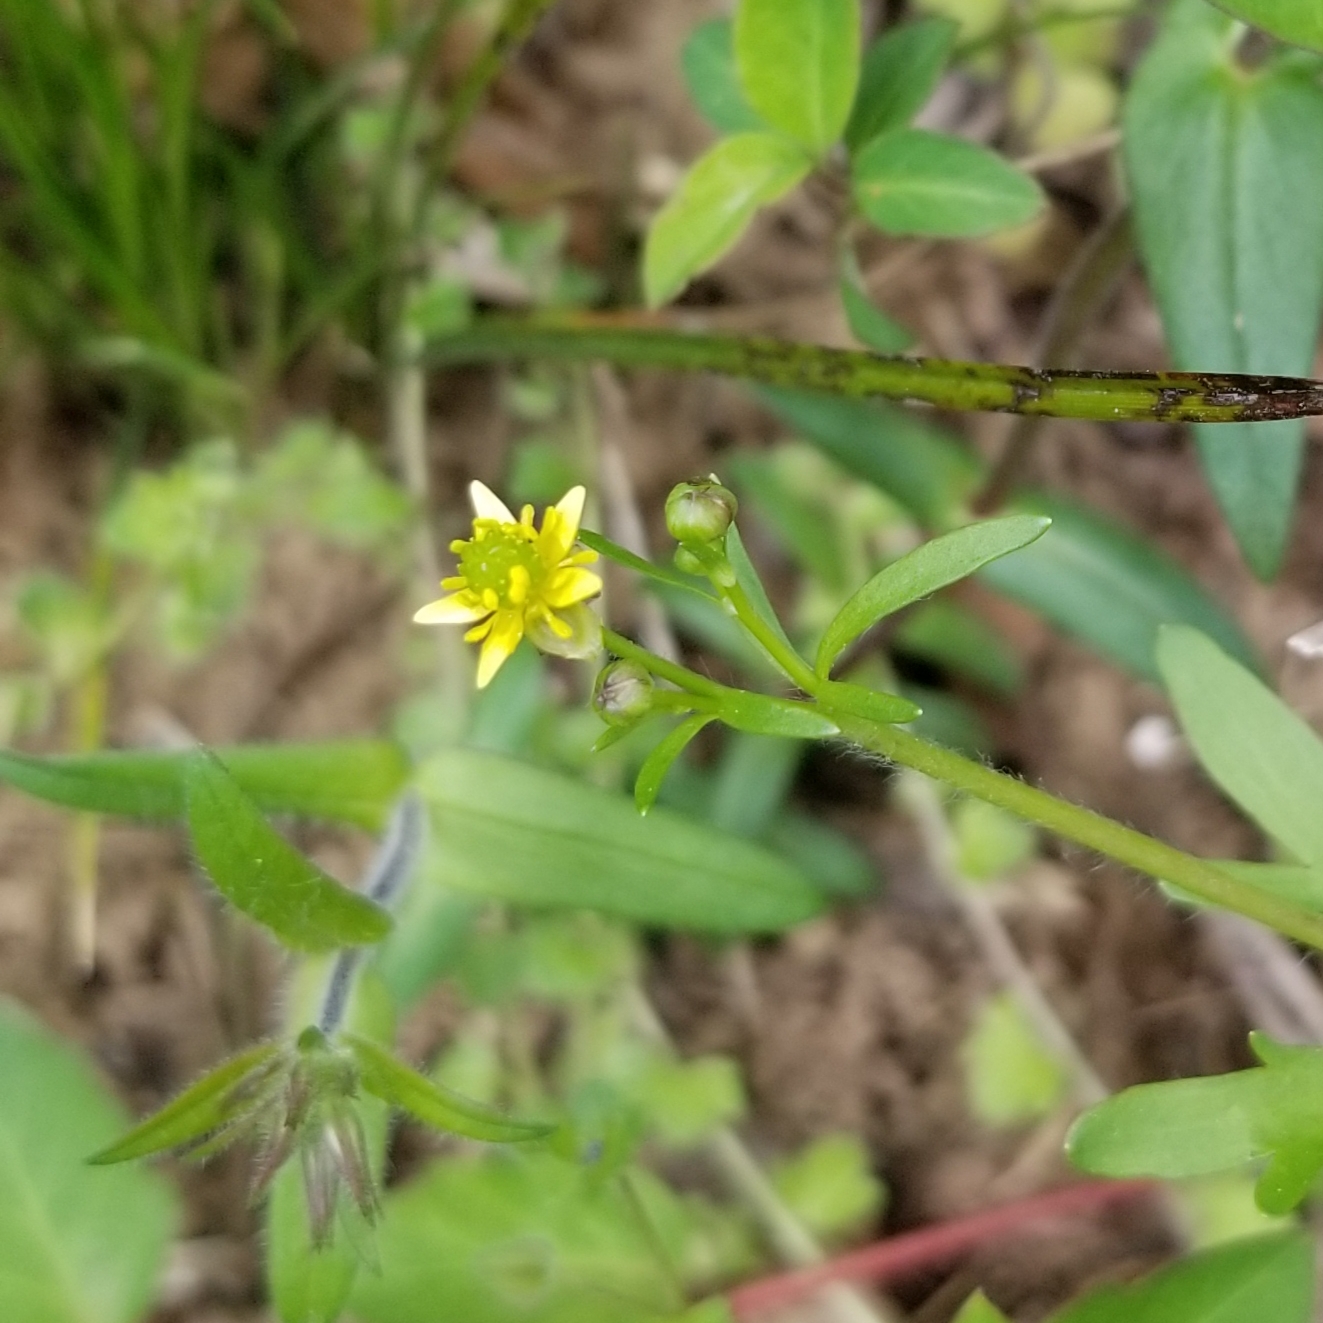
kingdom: Plantae
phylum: Tracheophyta
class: Magnoliopsida
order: Ranunculales
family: Ranunculaceae
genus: Ranunculus
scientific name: Ranunculus abortivus
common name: Early wood buttercup
